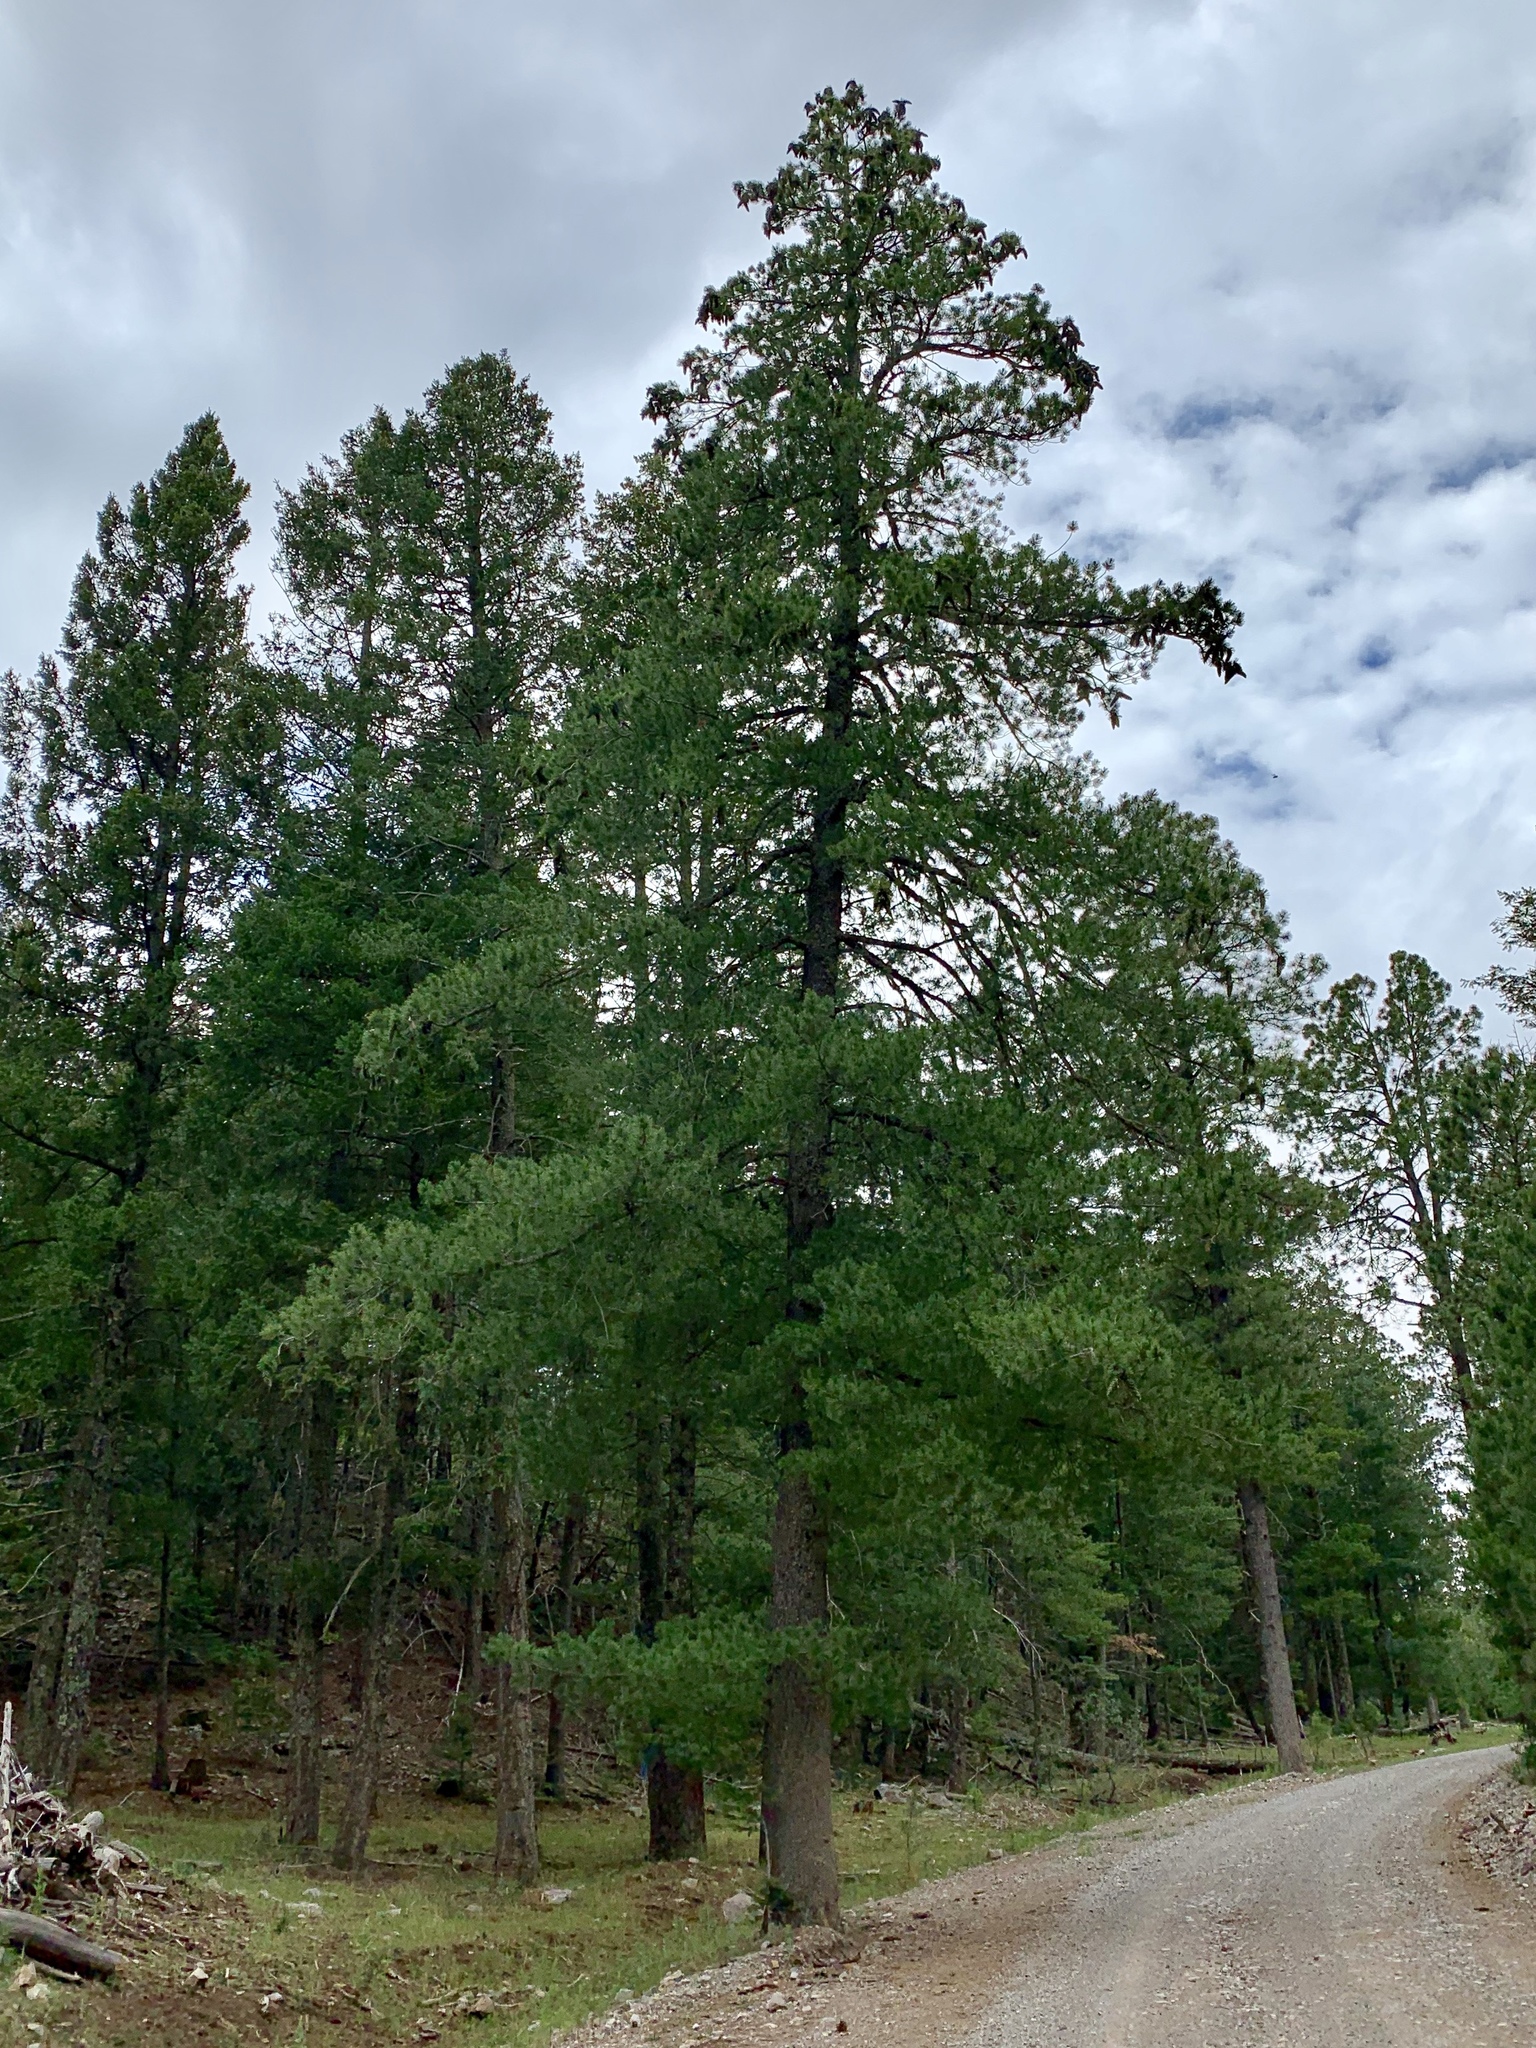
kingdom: Plantae
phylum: Tracheophyta
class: Pinopsida
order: Pinales
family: Pinaceae
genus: Pinus
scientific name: Pinus strobiformis
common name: Southwestern white pine
